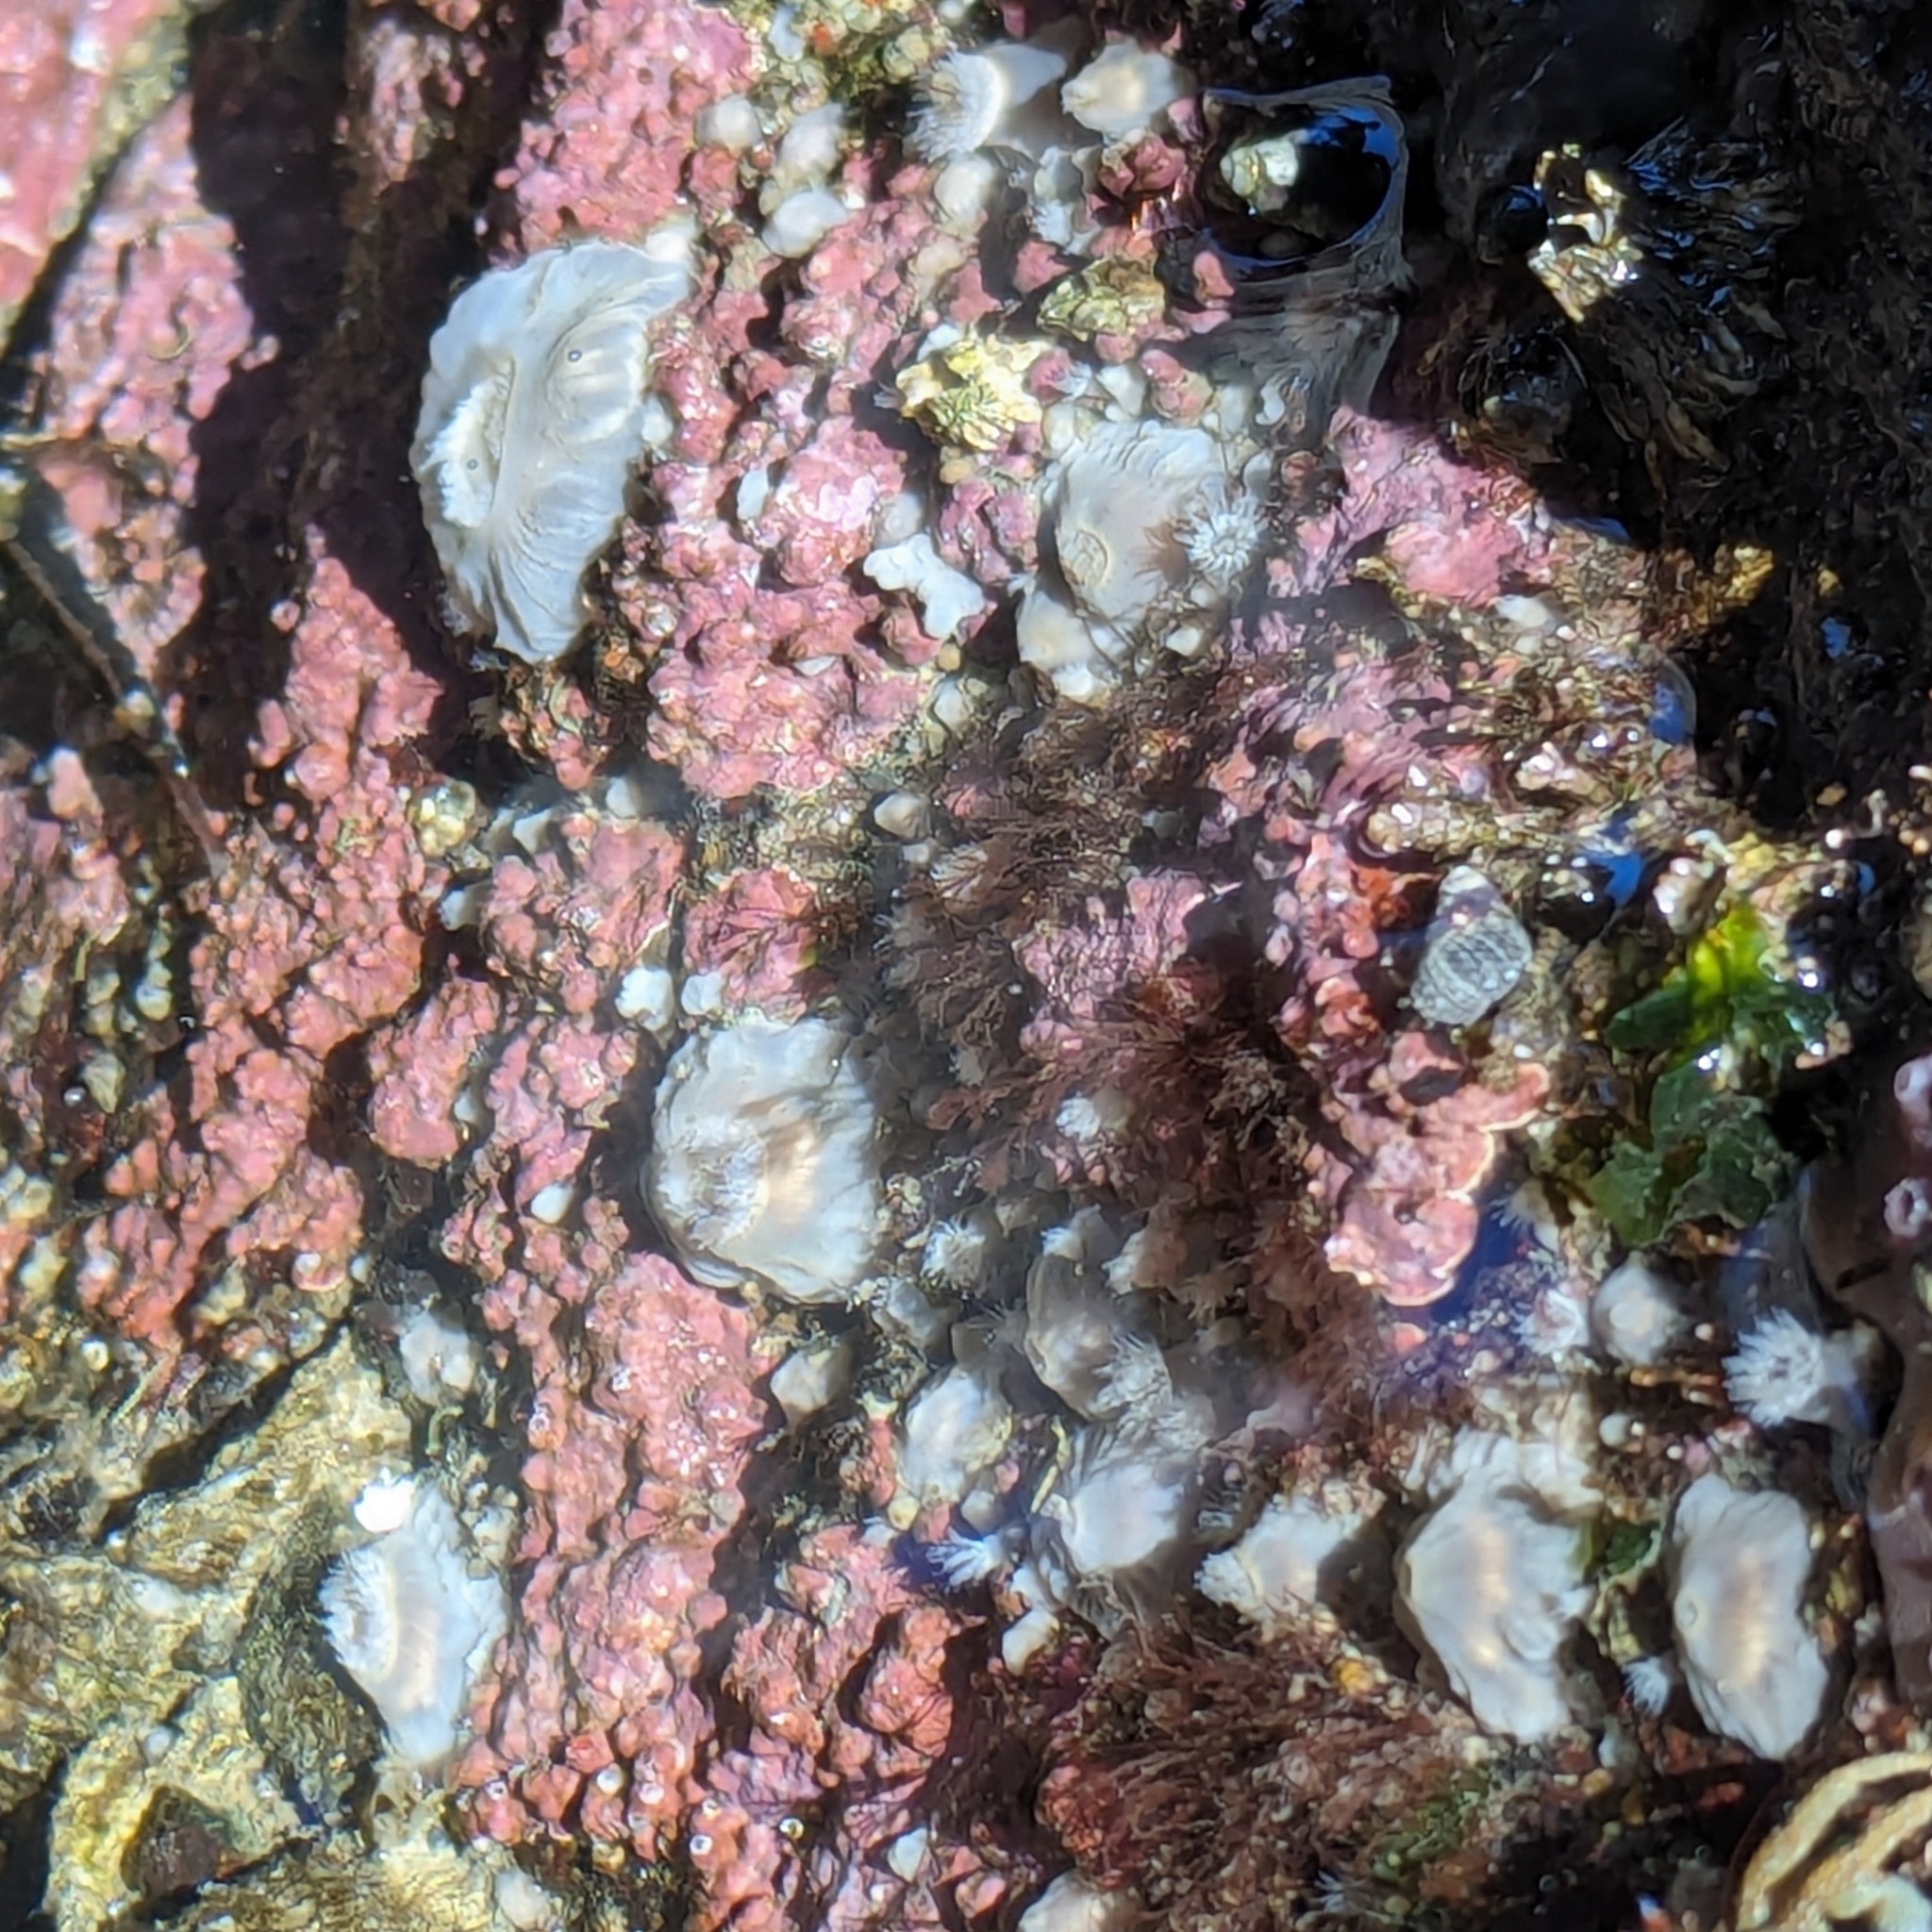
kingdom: Animalia
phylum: Cnidaria
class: Anthozoa
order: Actiniaria
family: Metridiidae
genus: Metridium
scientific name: Metridium senile
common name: Clonal plumose anemone
